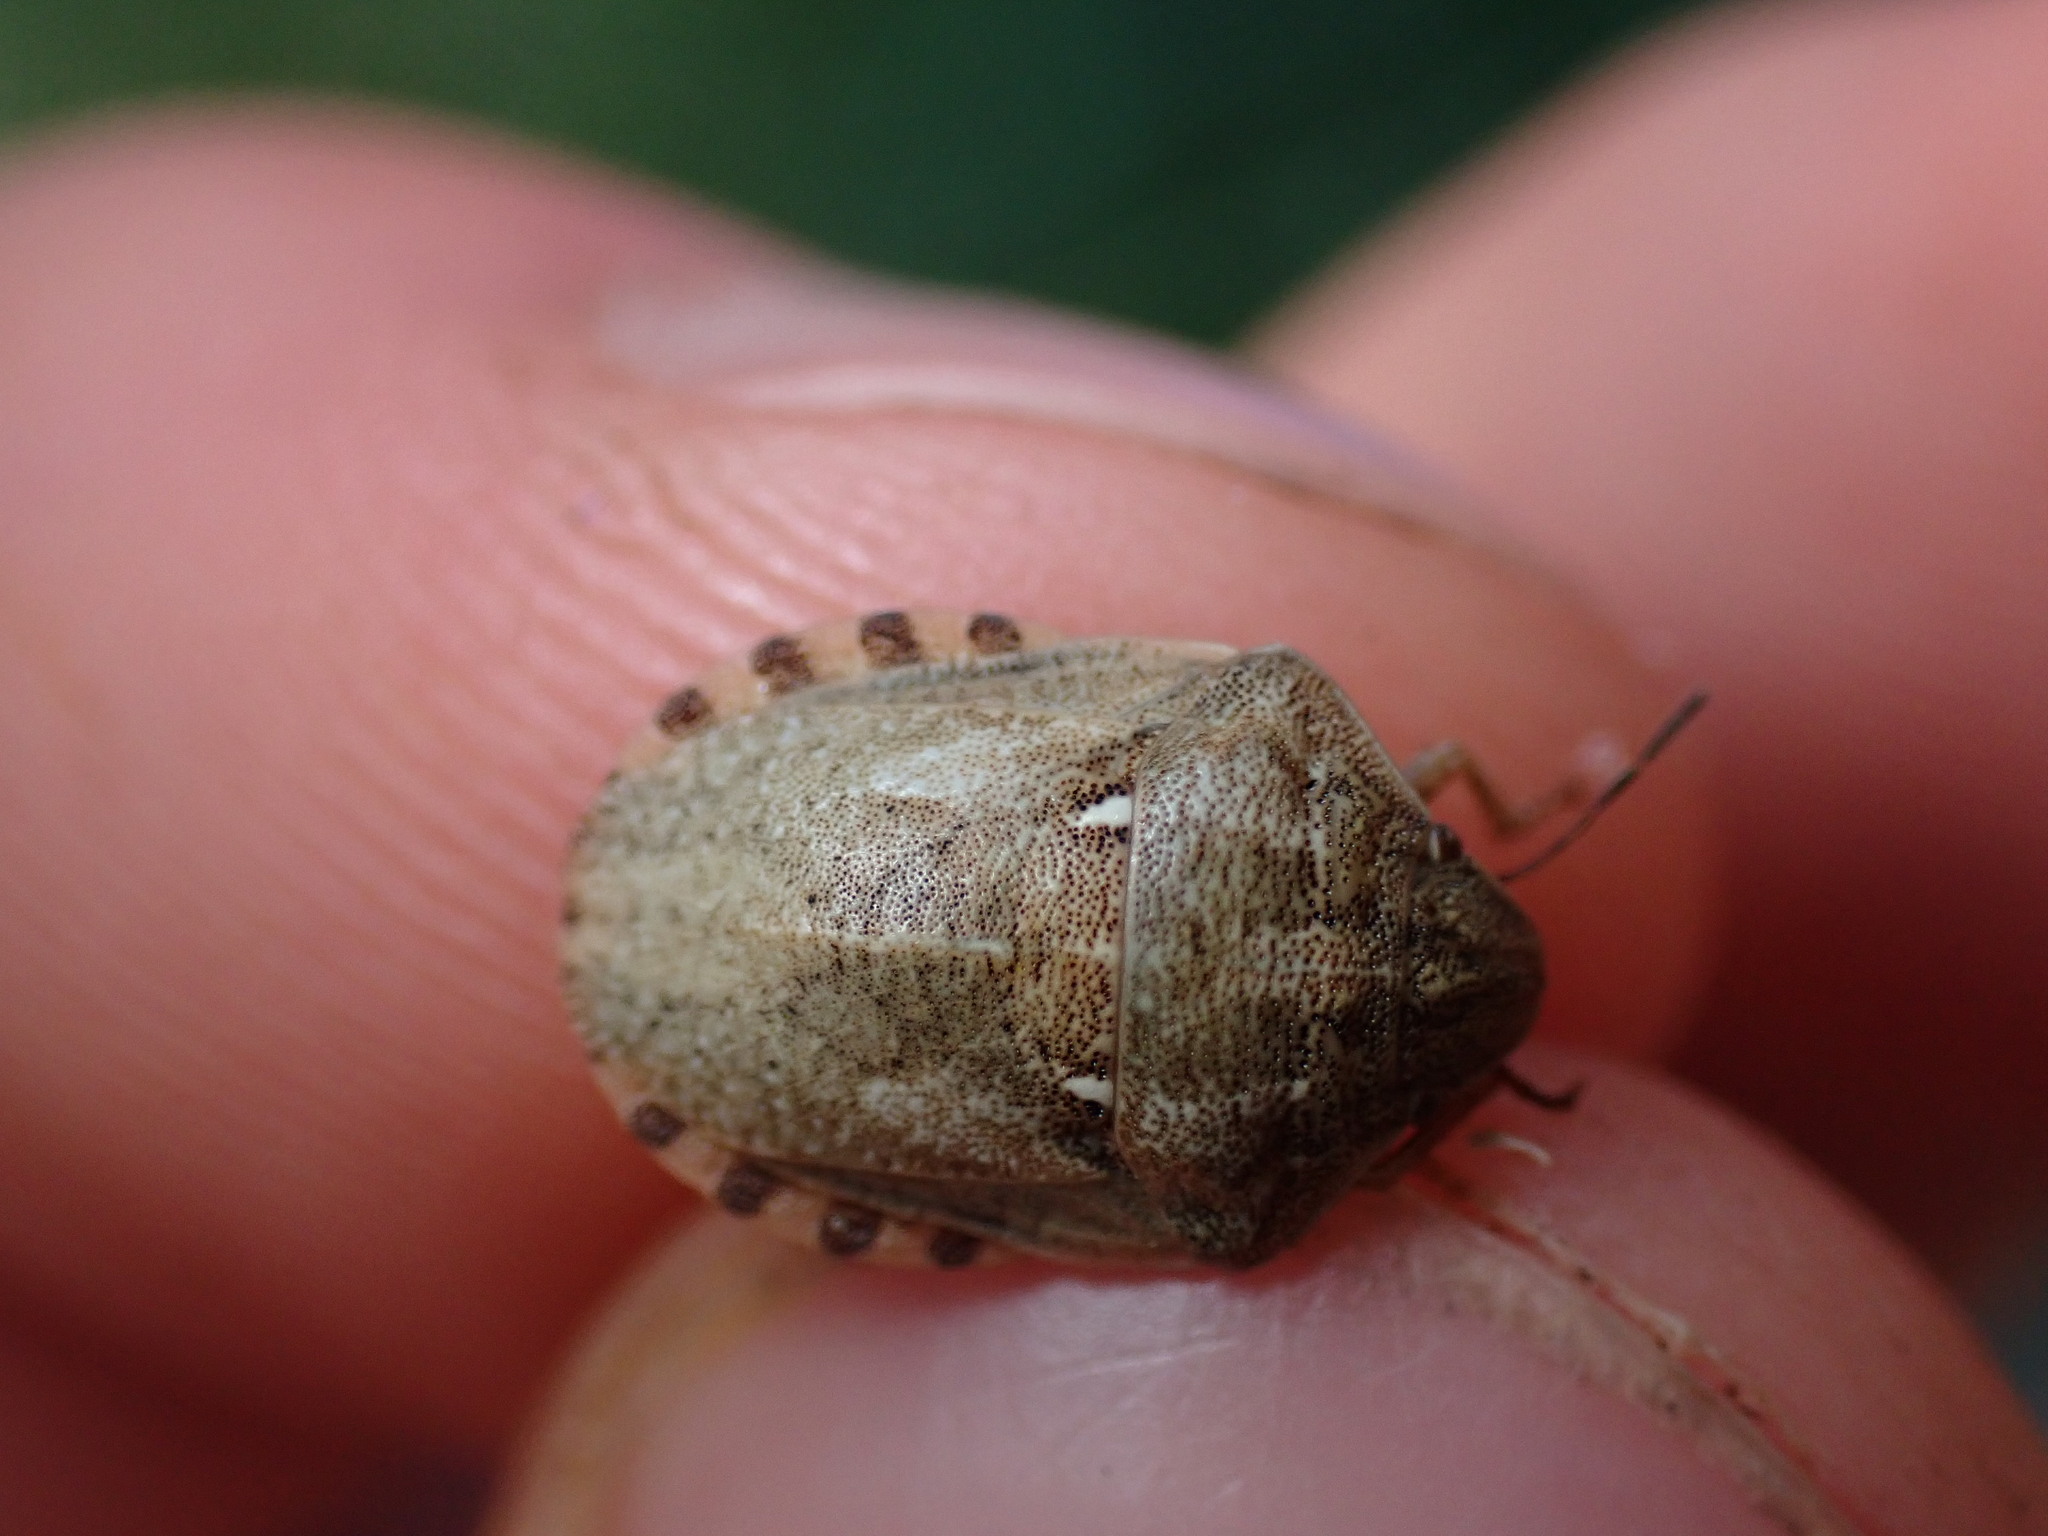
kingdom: Animalia
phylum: Arthropoda
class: Insecta
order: Hemiptera
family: Scutelleridae
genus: Eurygaster
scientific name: Eurygaster maura
